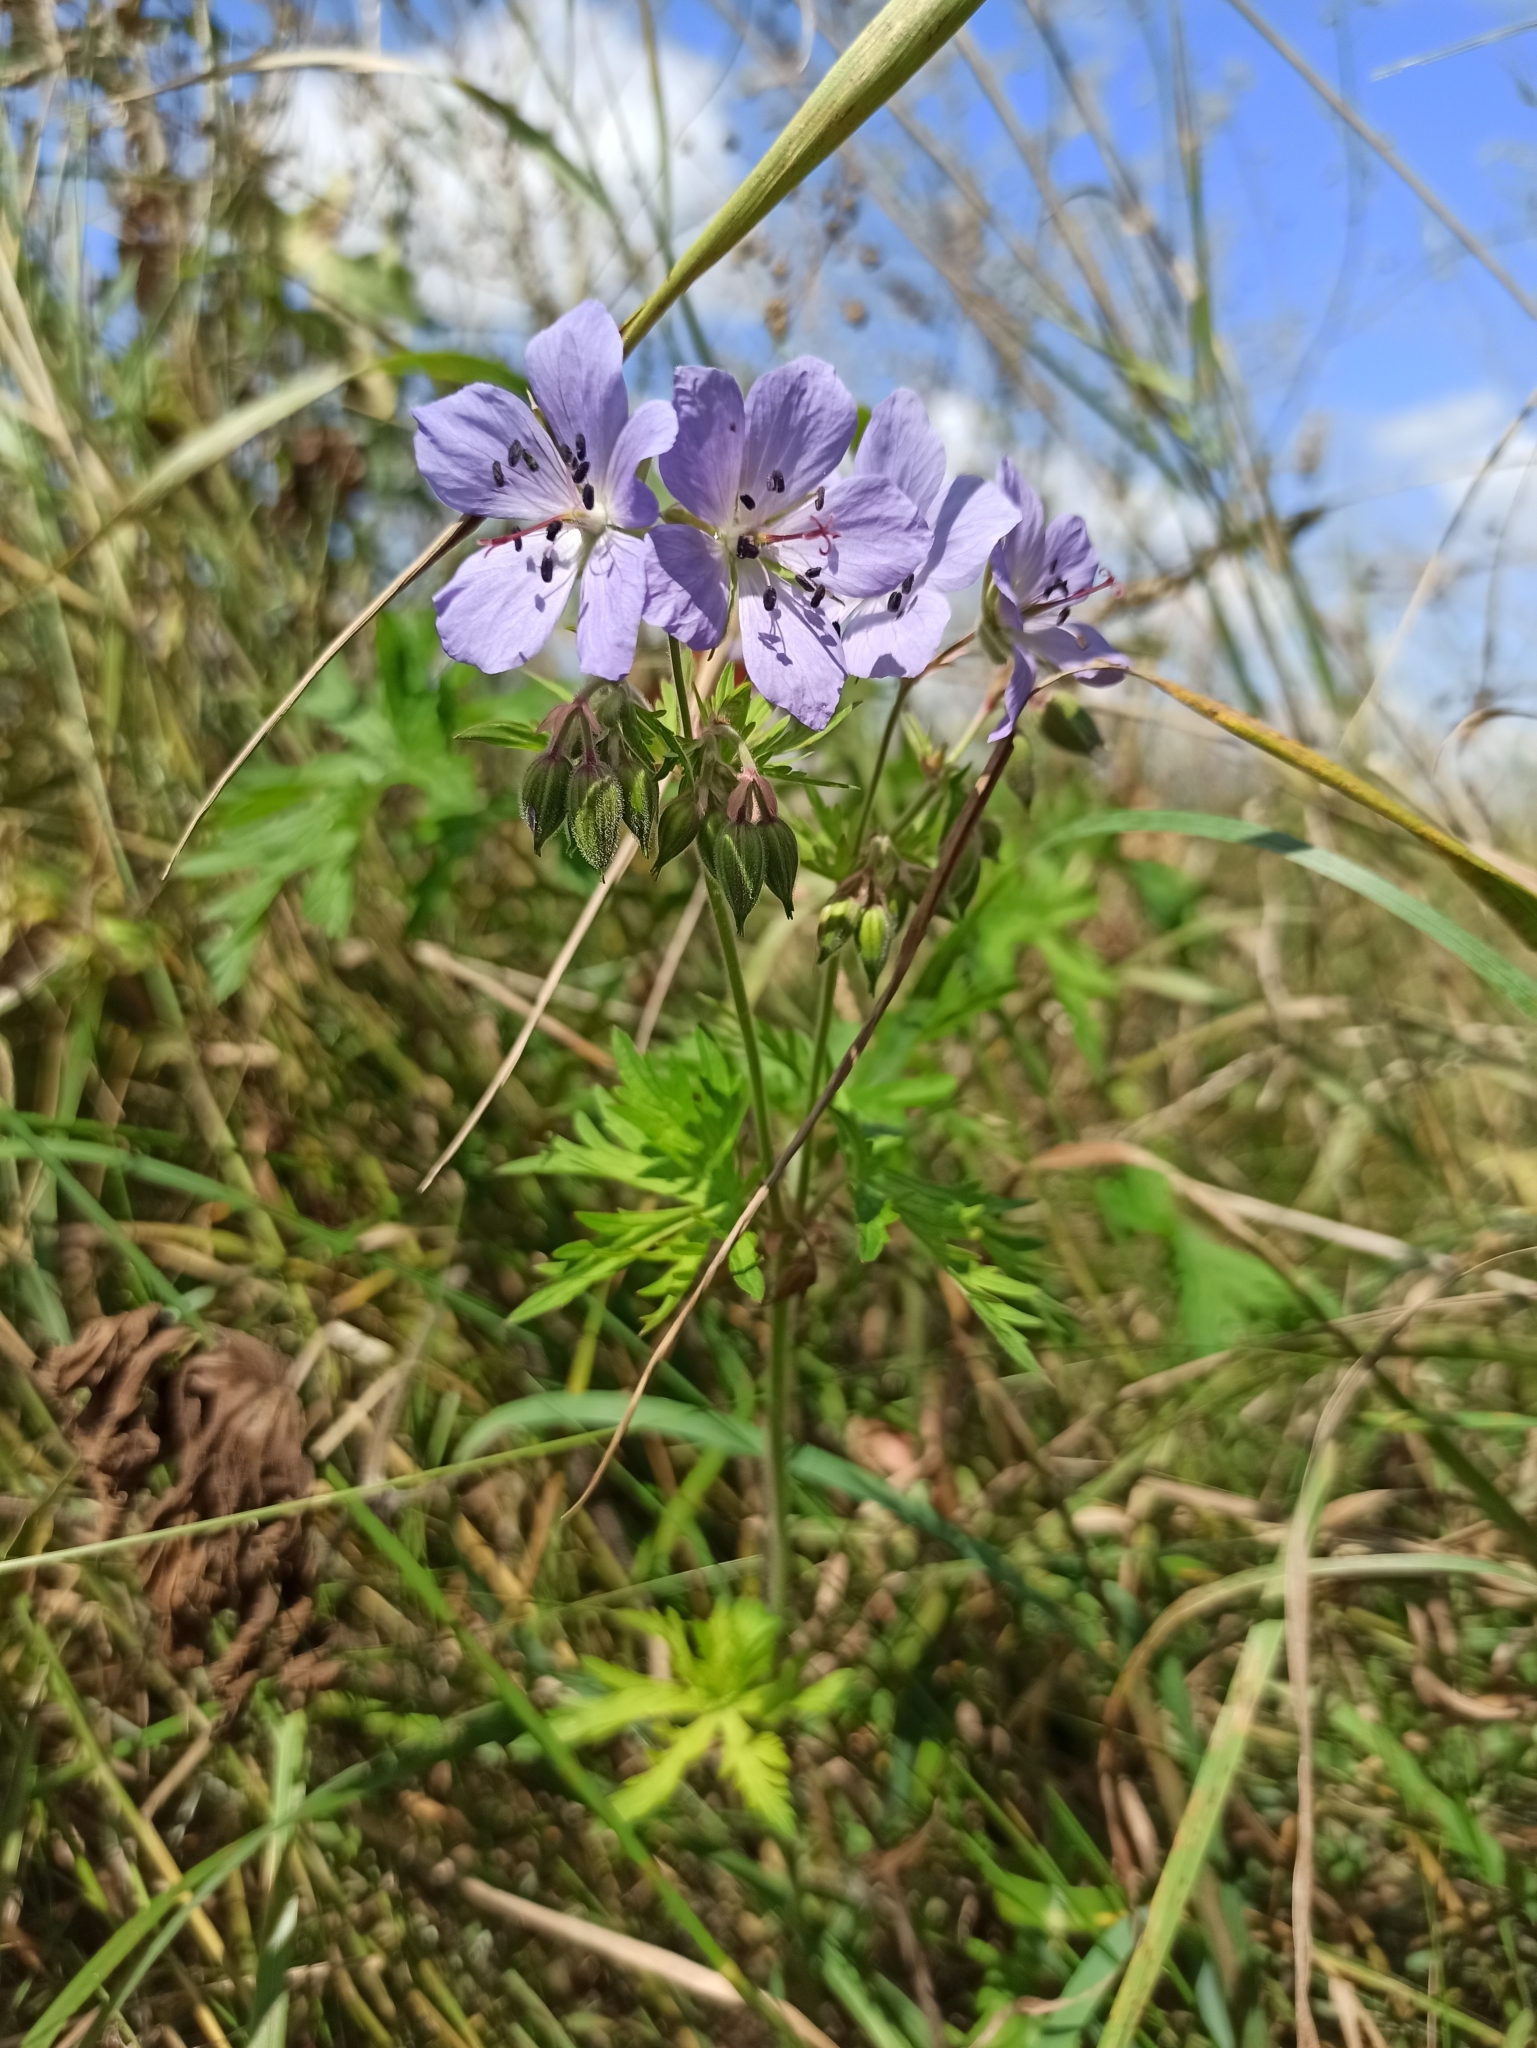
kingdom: Plantae
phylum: Tracheophyta
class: Magnoliopsida
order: Geraniales
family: Geraniaceae
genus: Geranium
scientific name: Geranium pratense
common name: Meadow crane's-bill
